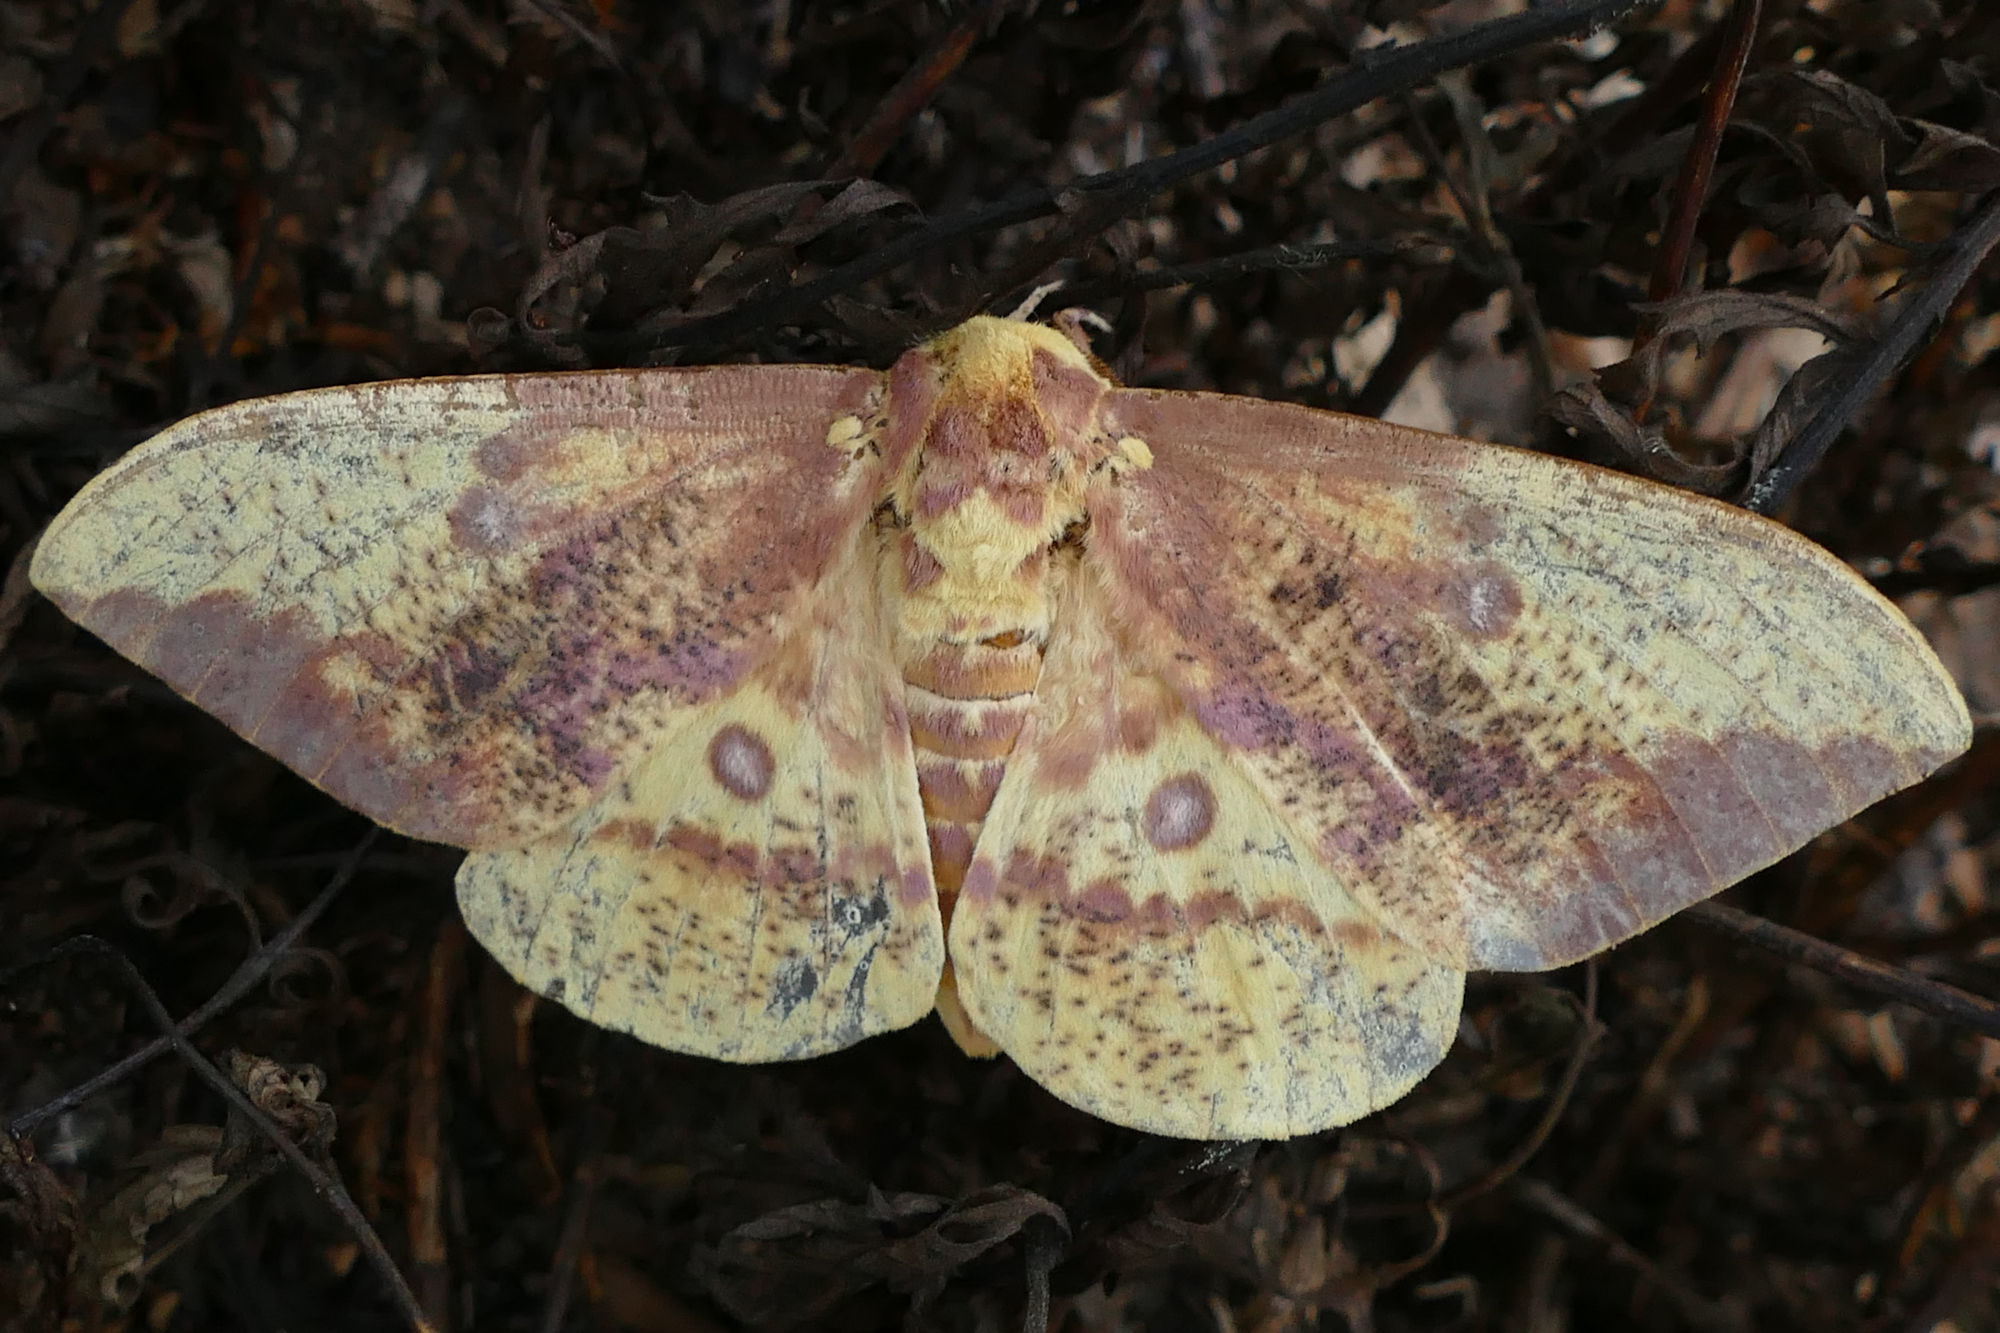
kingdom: Animalia
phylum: Arthropoda
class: Insecta
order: Lepidoptera
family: Saturniidae
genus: Eacles
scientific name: Eacles imperialis
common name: Imperial moth
